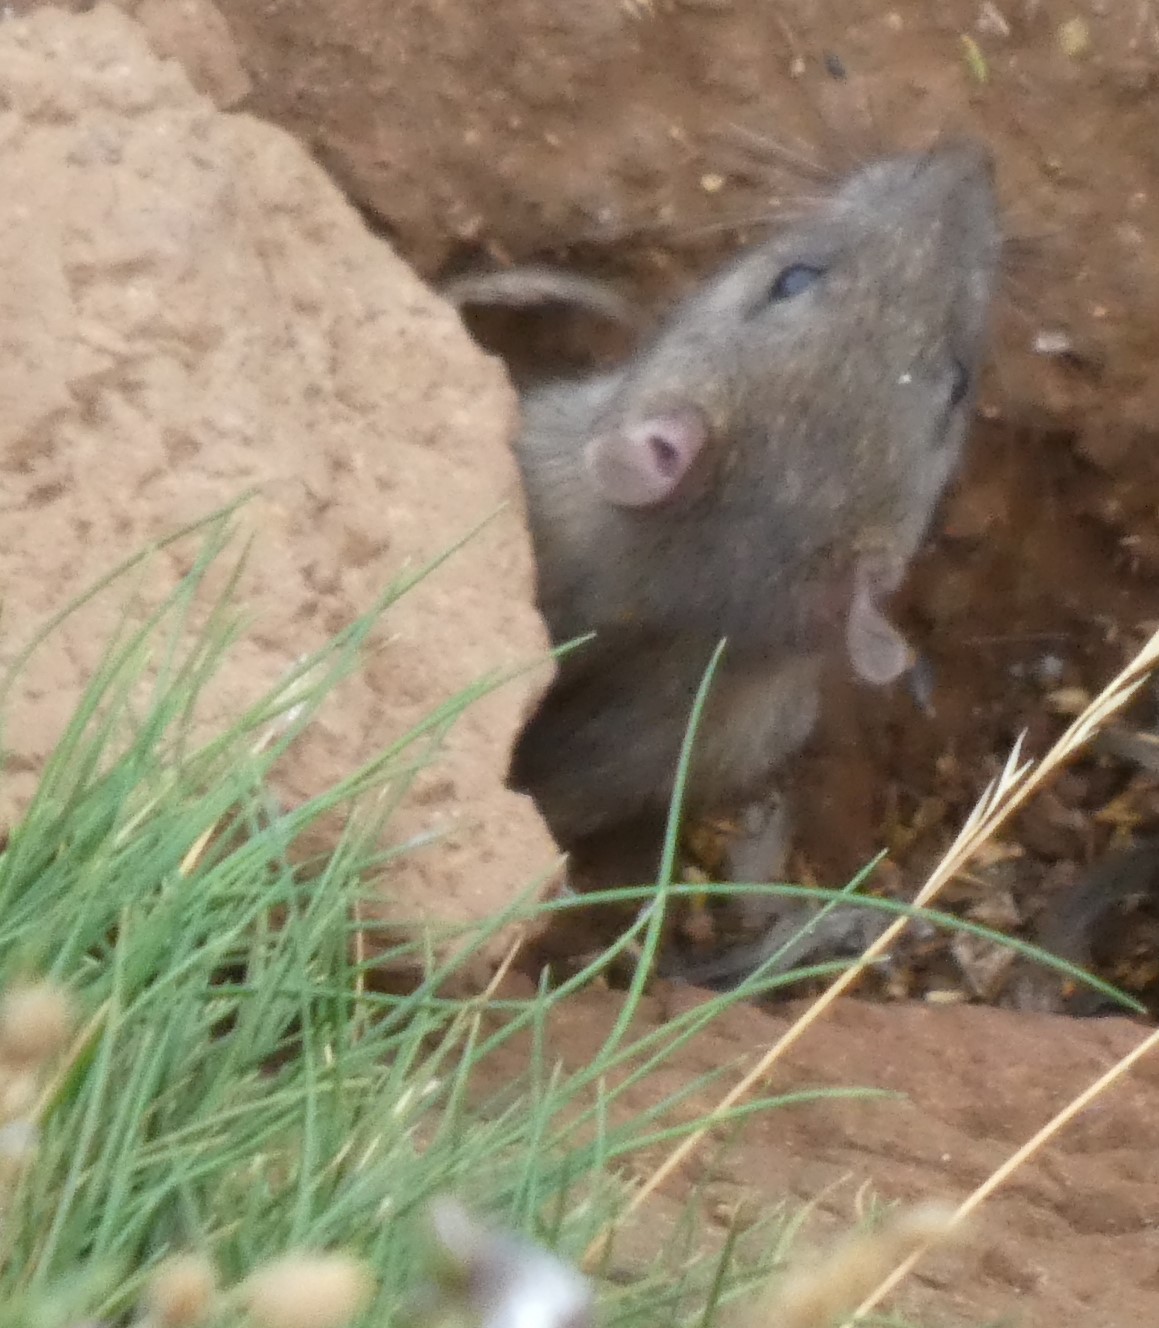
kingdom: Animalia
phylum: Chordata
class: Mammalia
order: Rodentia
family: Muridae
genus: Rattus
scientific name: Rattus norvegicus
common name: Brown rat
